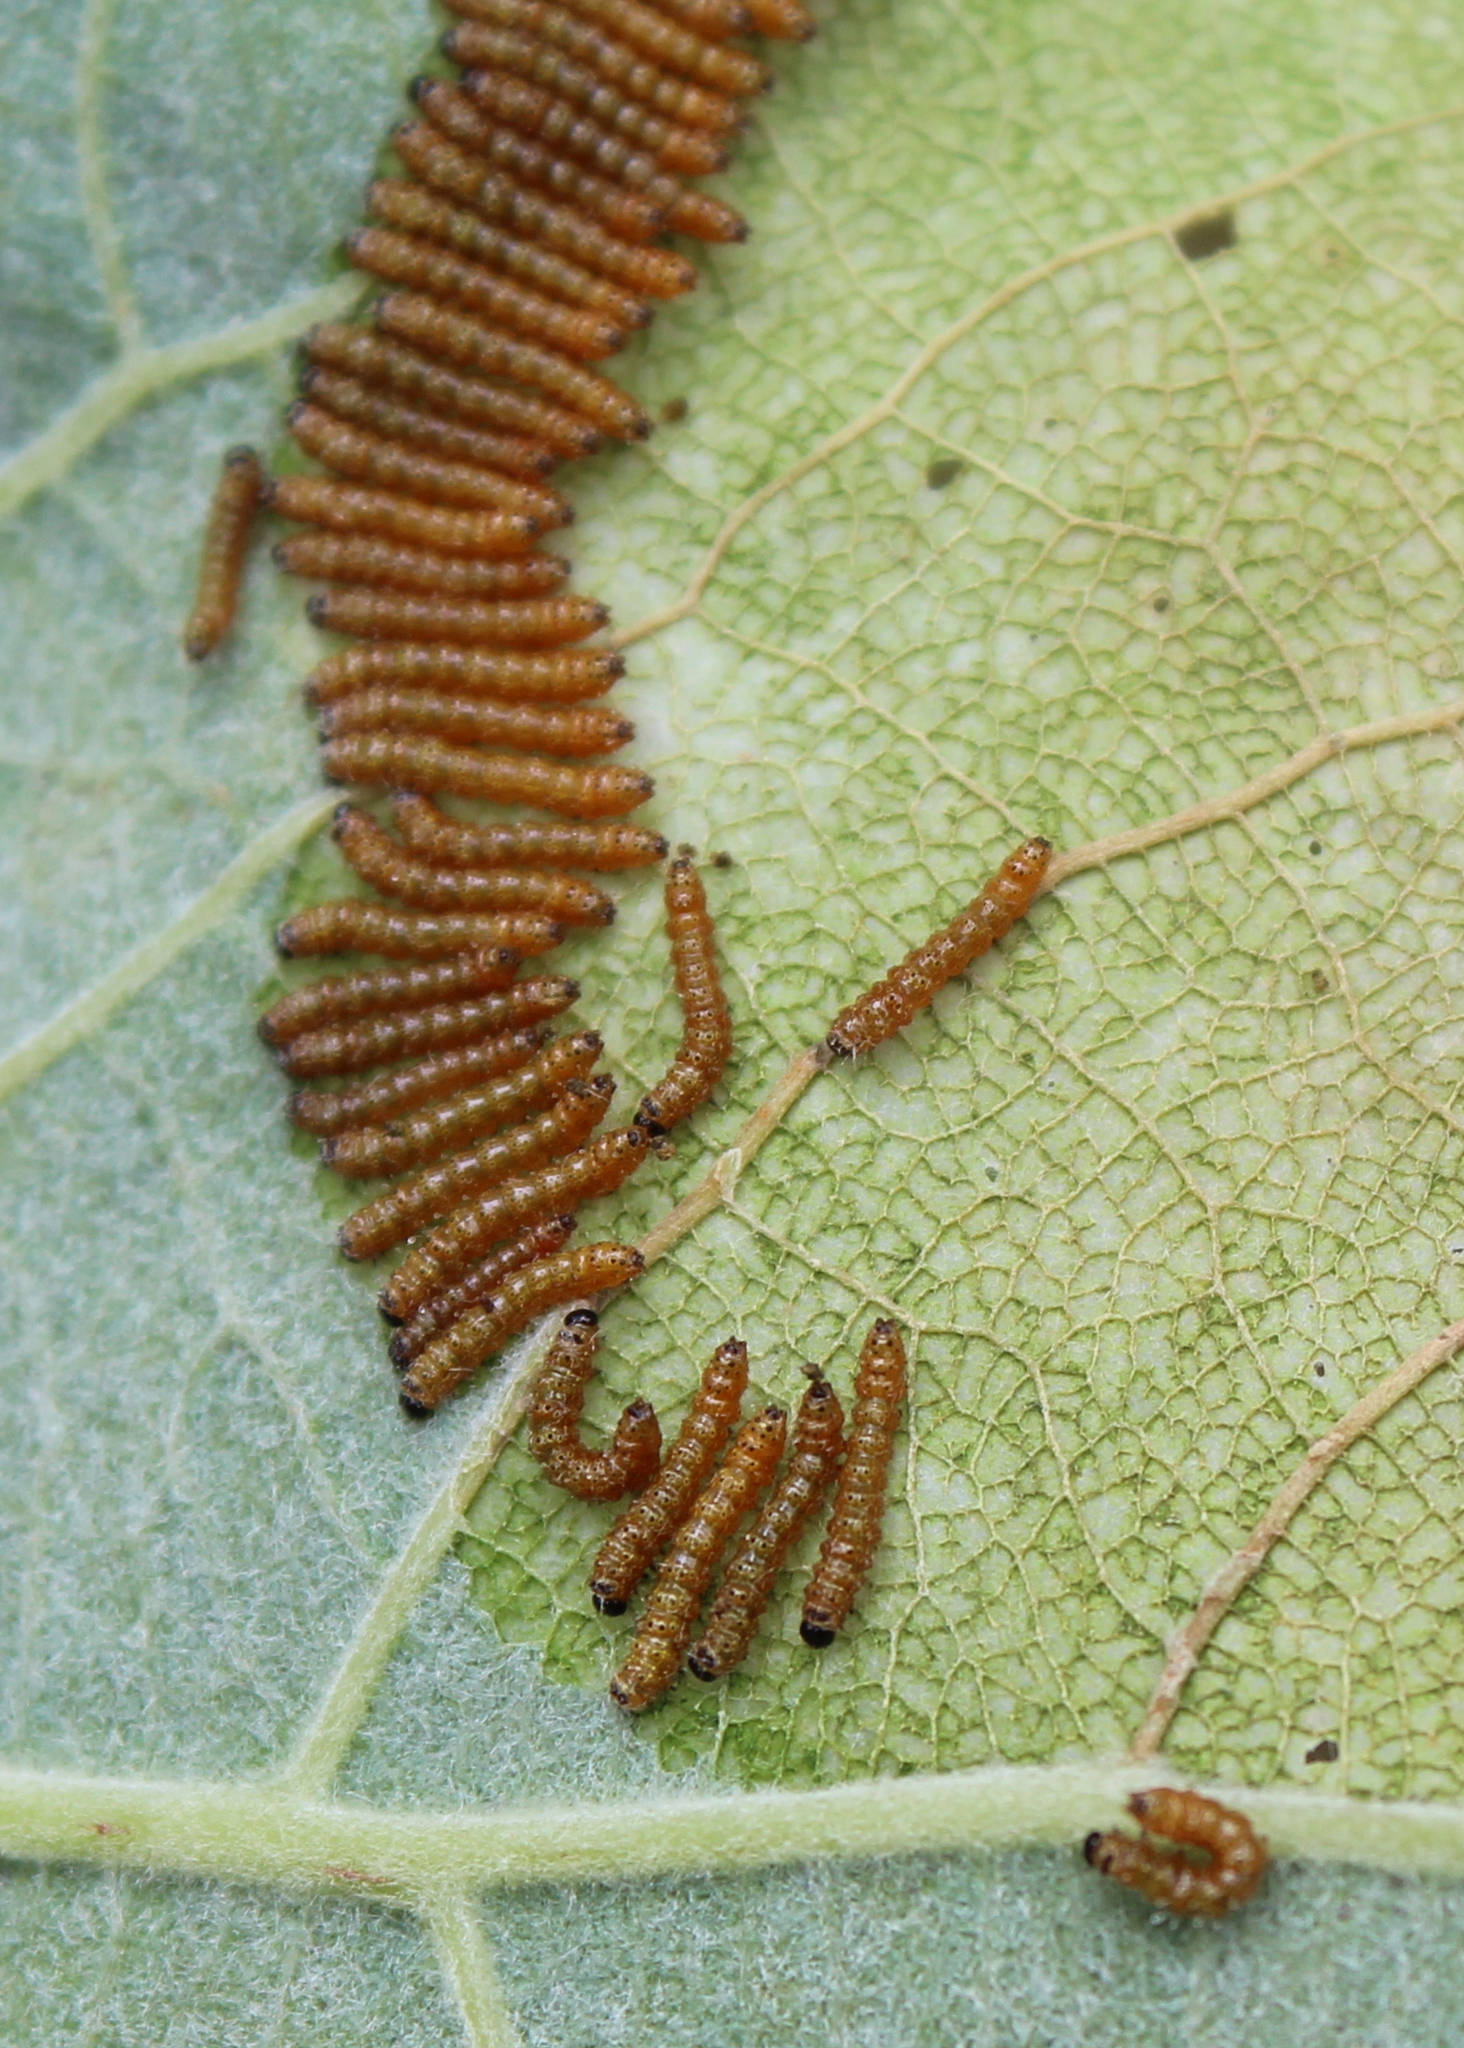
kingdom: Animalia
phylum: Arthropoda
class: Insecta
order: Lepidoptera
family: Notodontidae
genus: Schizura
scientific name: Schizura
